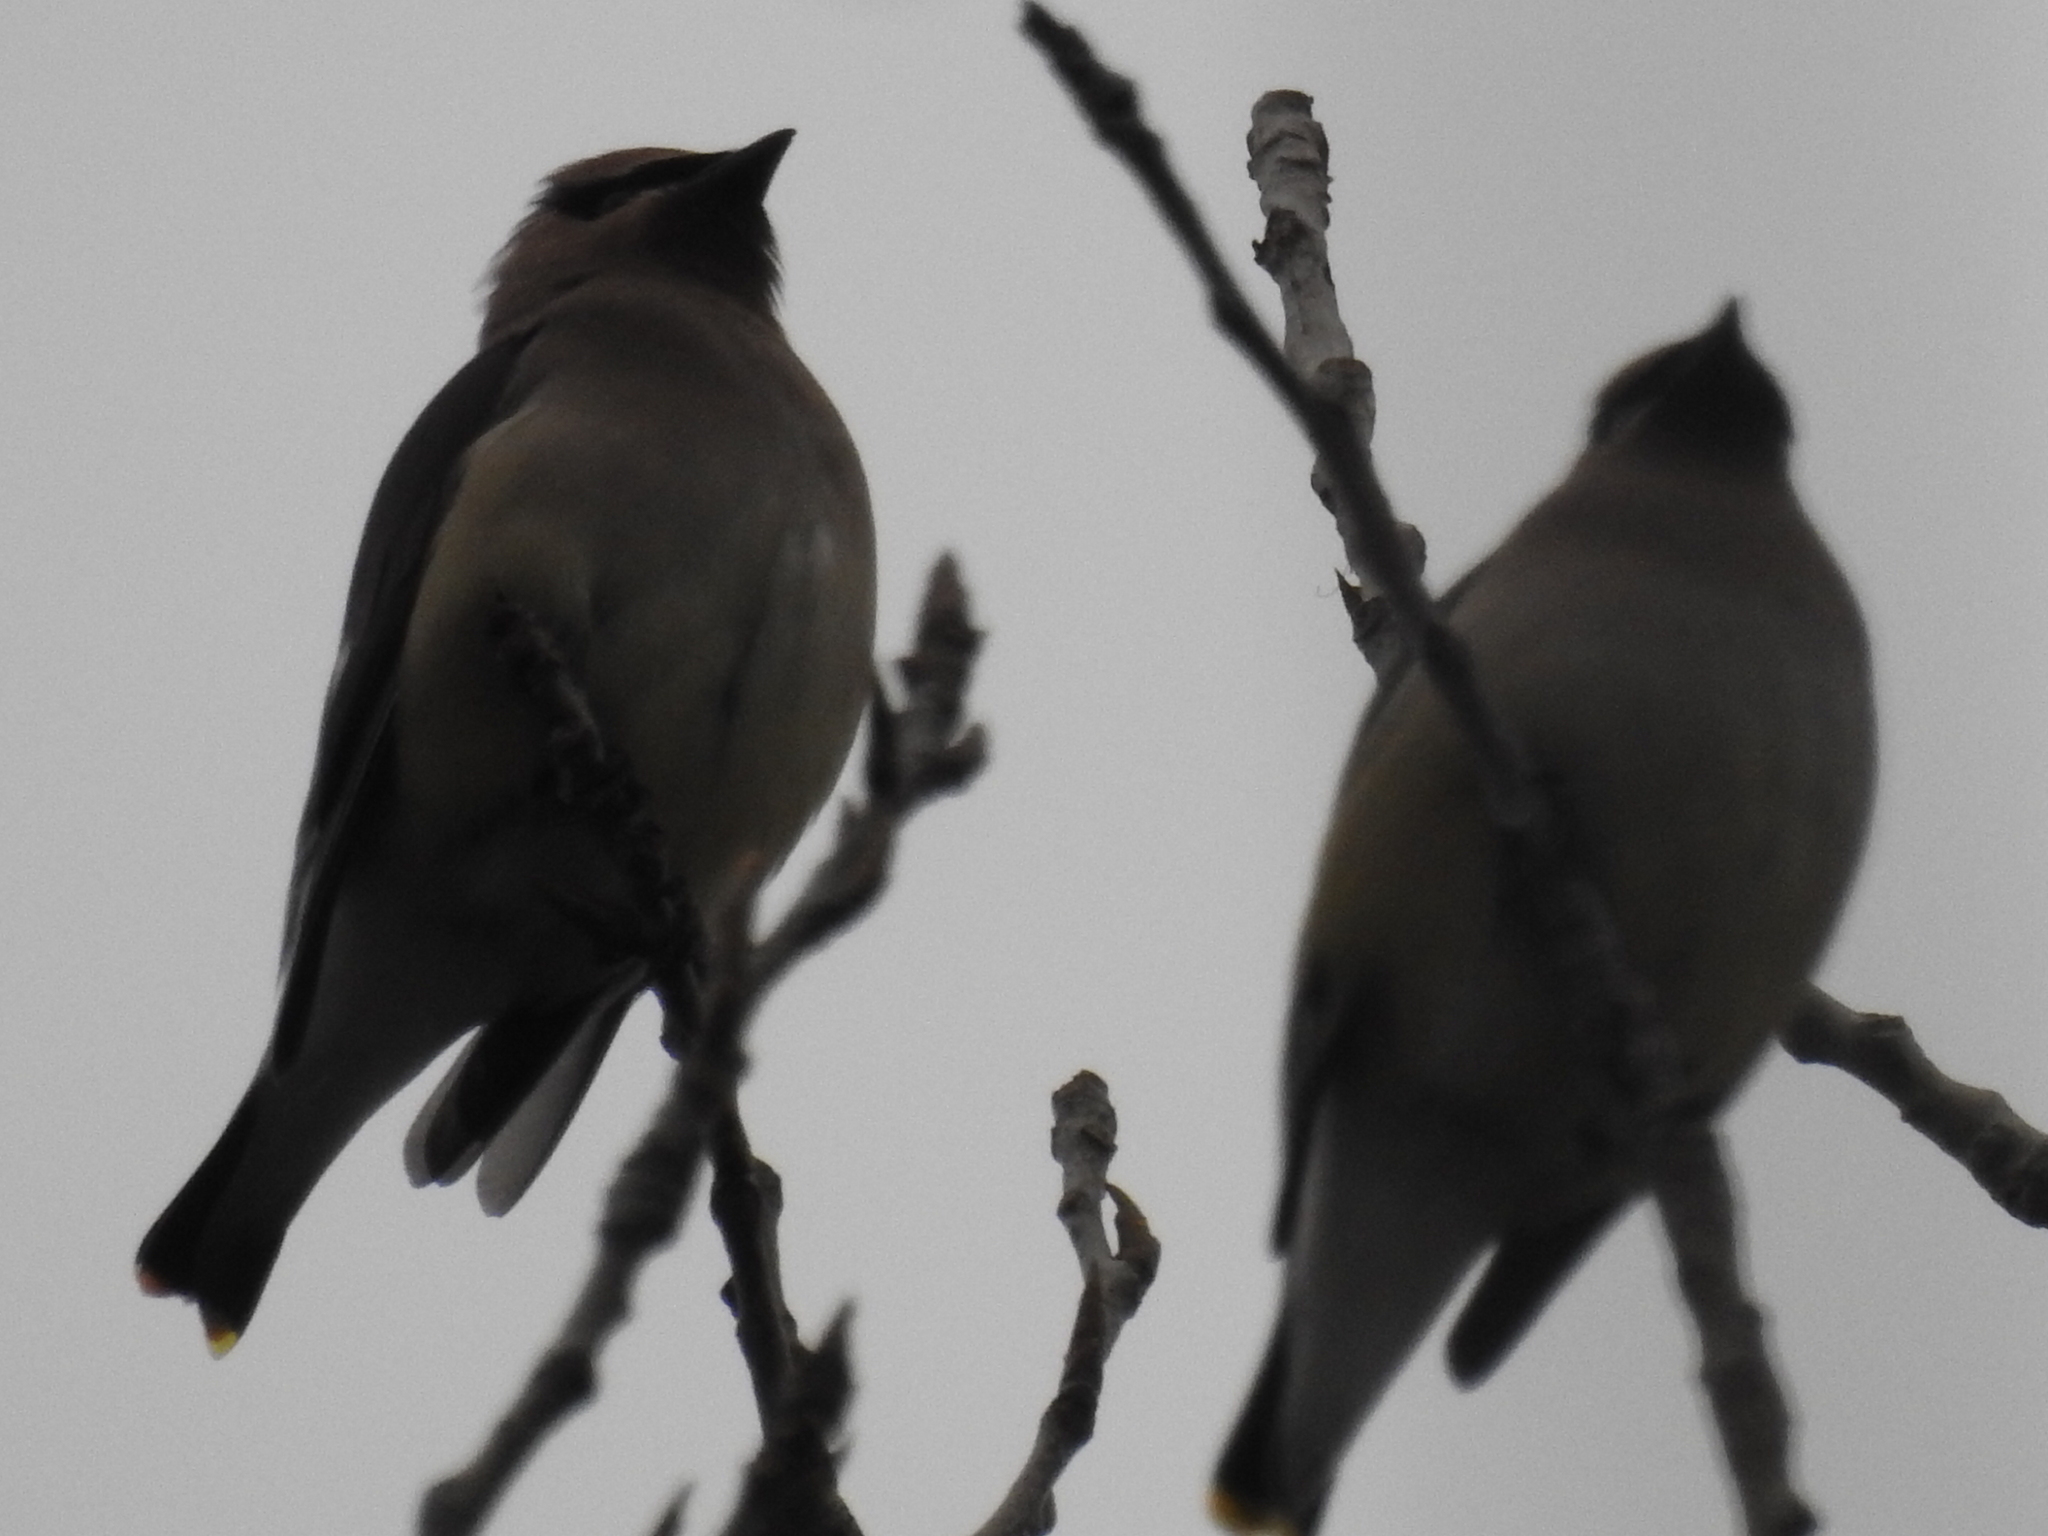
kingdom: Animalia
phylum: Chordata
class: Aves
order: Passeriformes
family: Bombycillidae
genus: Bombycilla
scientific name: Bombycilla cedrorum
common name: Cedar waxwing
